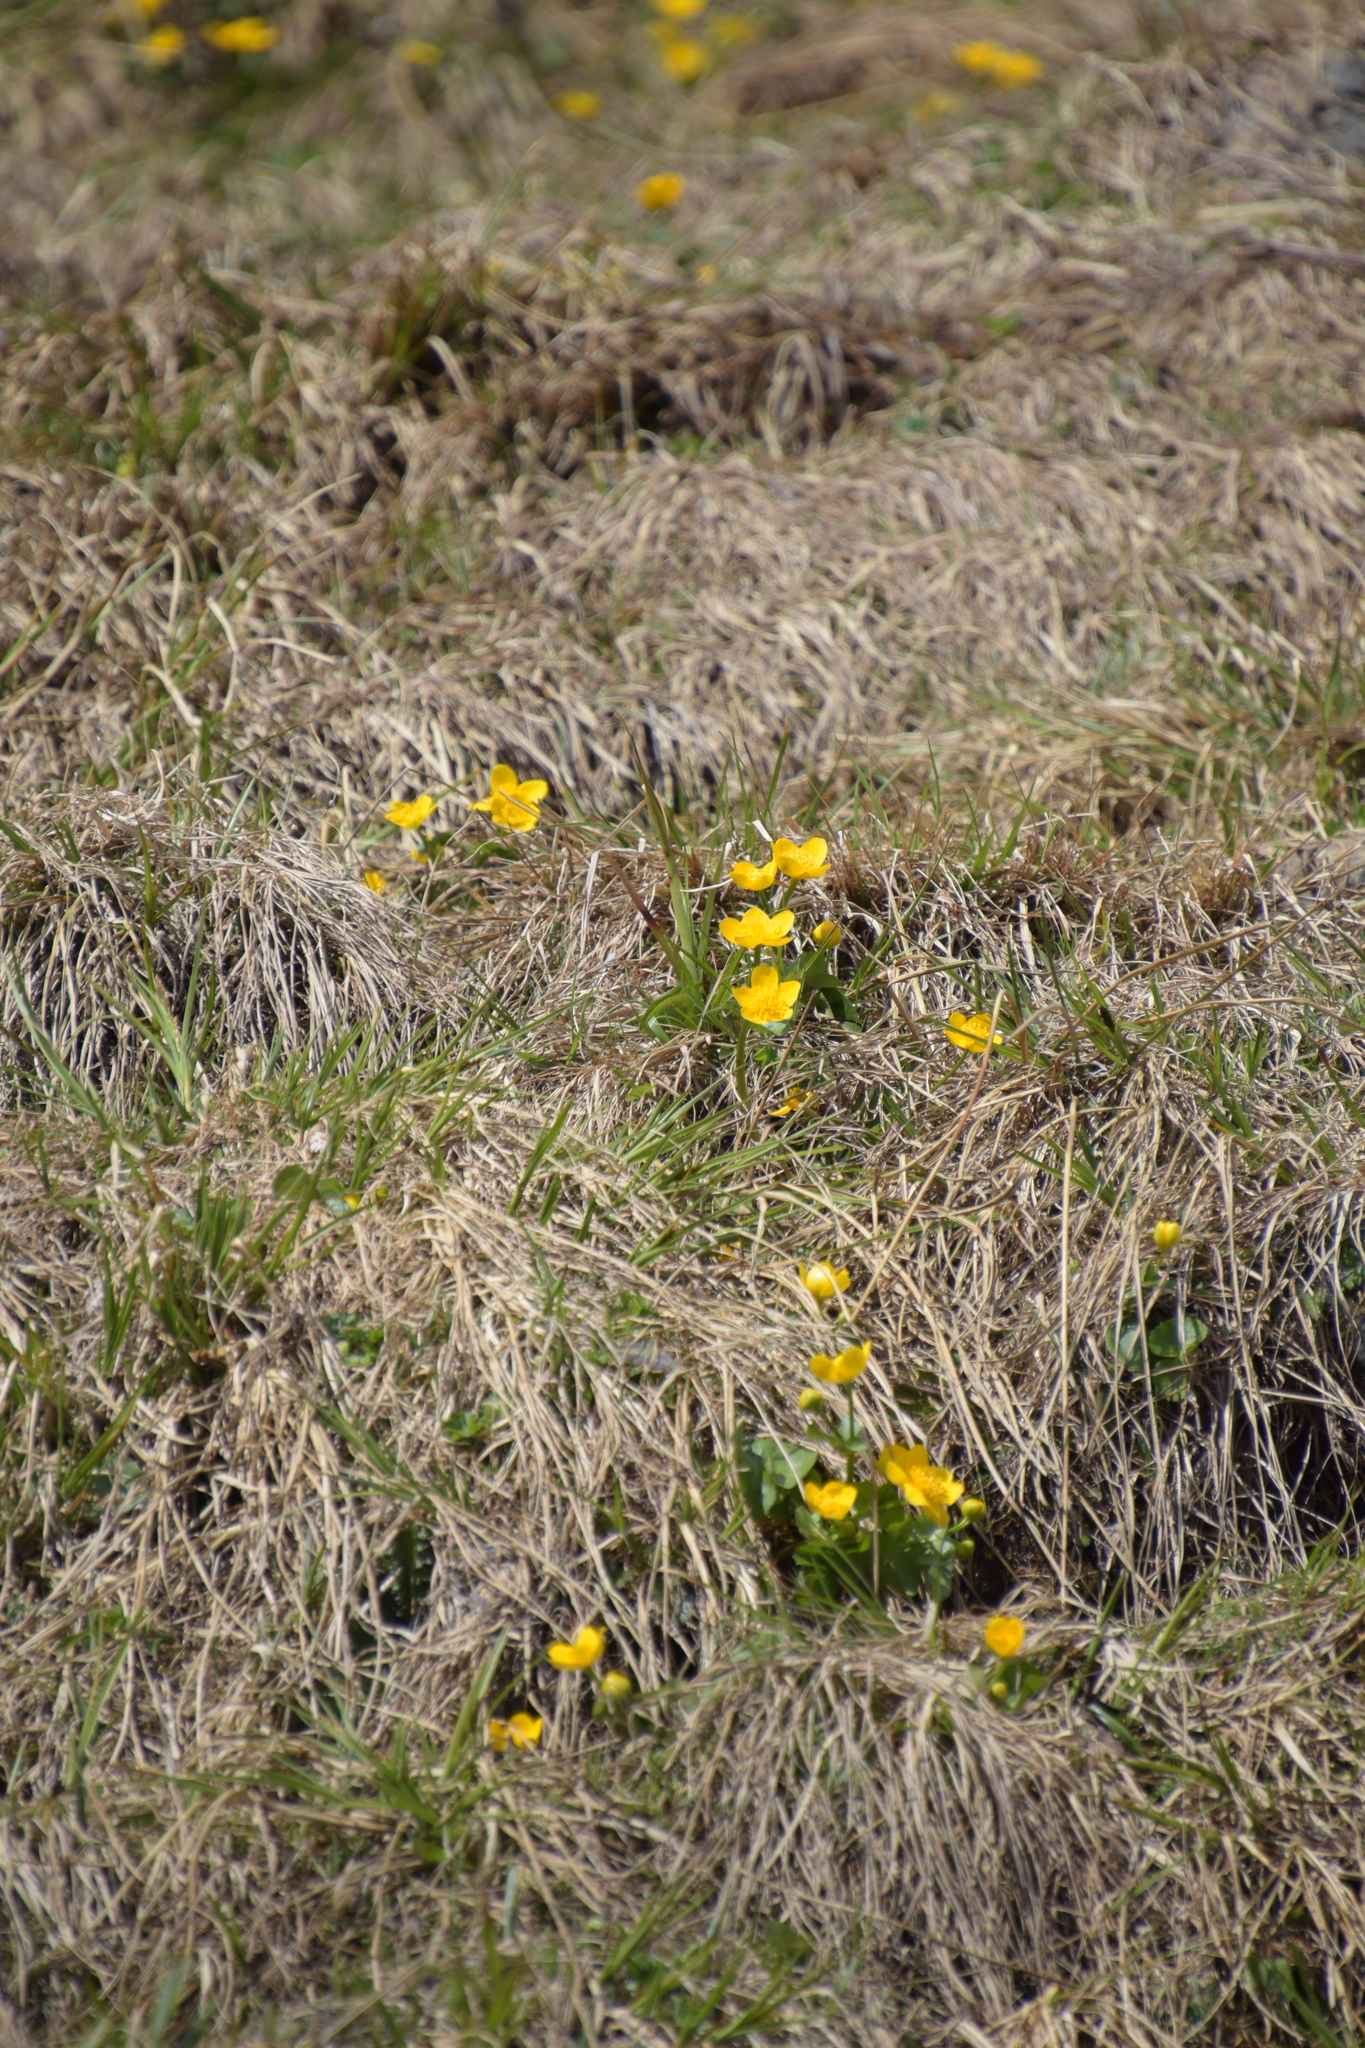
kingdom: Plantae
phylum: Tracheophyta
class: Magnoliopsida
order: Ranunculales
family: Ranunculaceae
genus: Caltha
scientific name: Caltha palustris
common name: Marsh marigold
